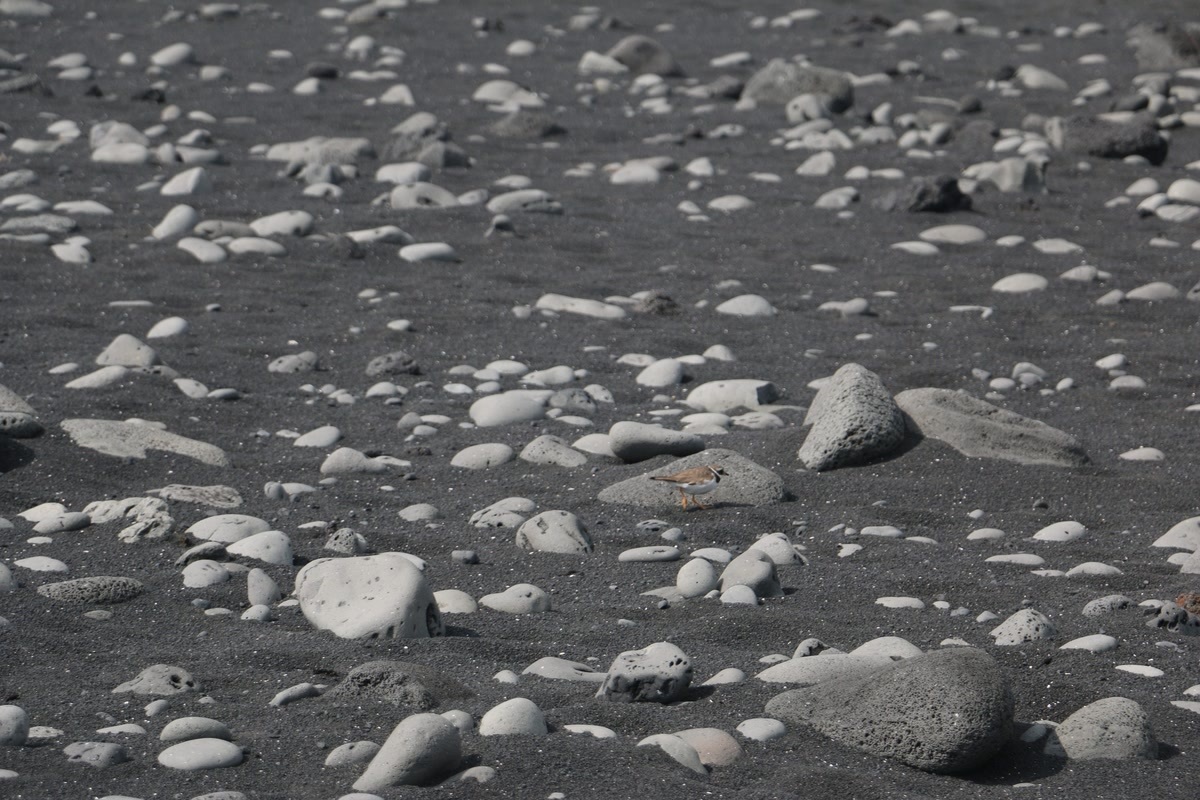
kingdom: Animalia
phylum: Chordata
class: Aves
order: Charadriiformes
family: Charadriidae
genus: Charadrius
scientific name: Charadrius hiaticula
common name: Common ringed plover
